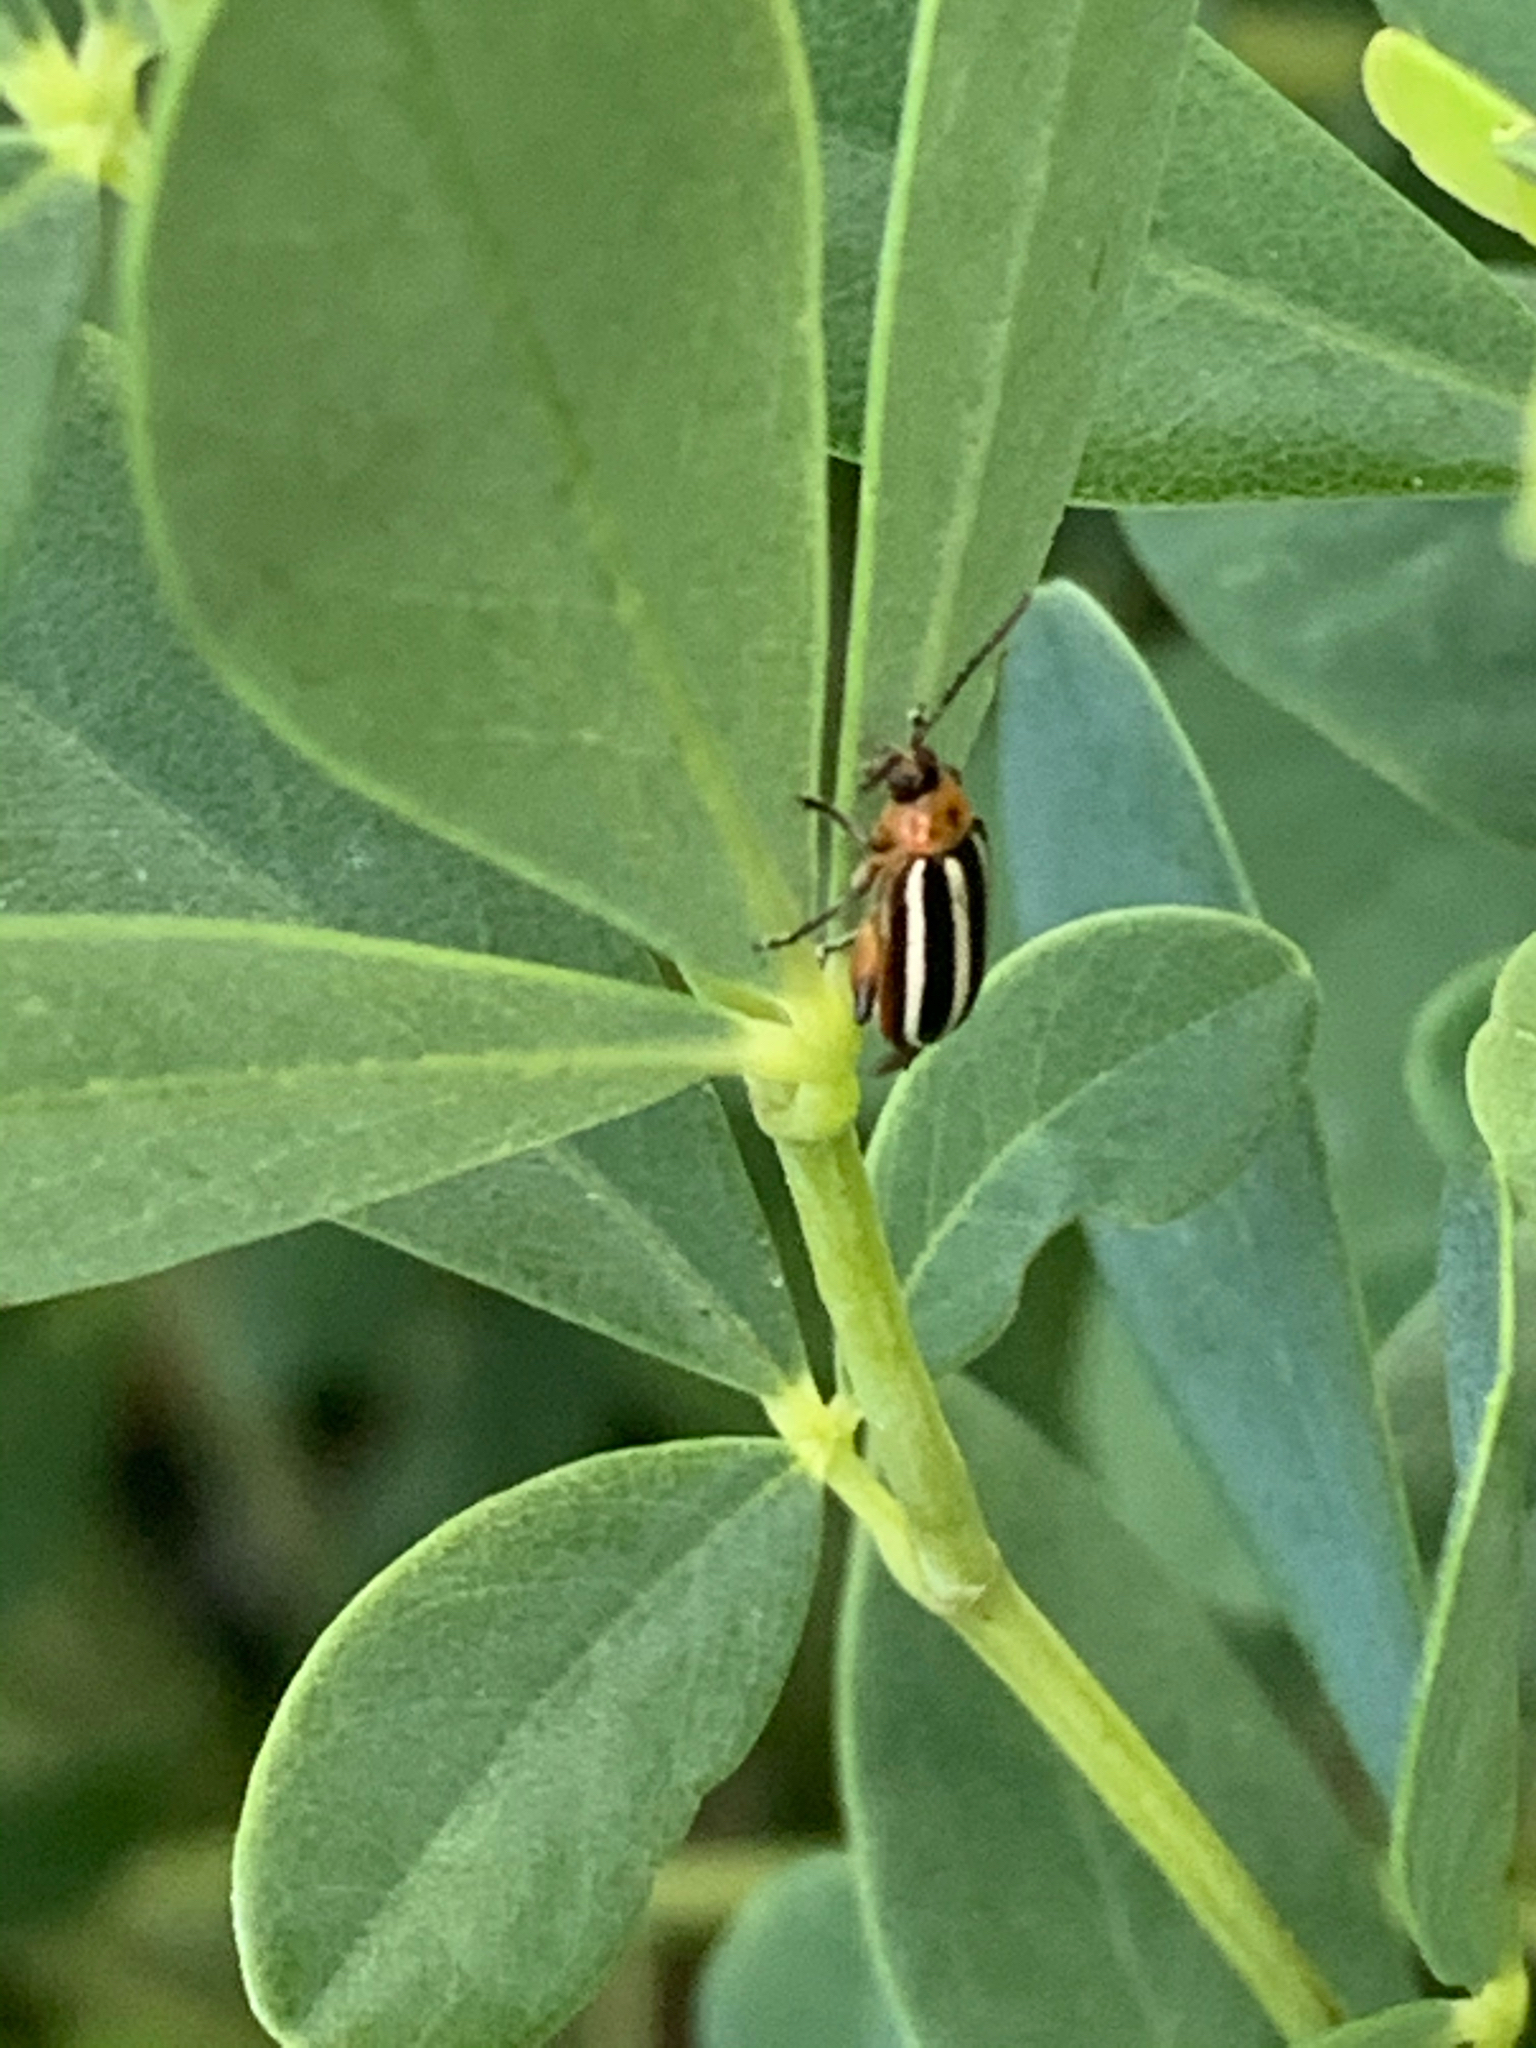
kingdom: Animalia
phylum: Arthropoda
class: Insecta
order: Coleoptera
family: Chrysomelidae
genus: Disonycha
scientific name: Disonycha glabrata
